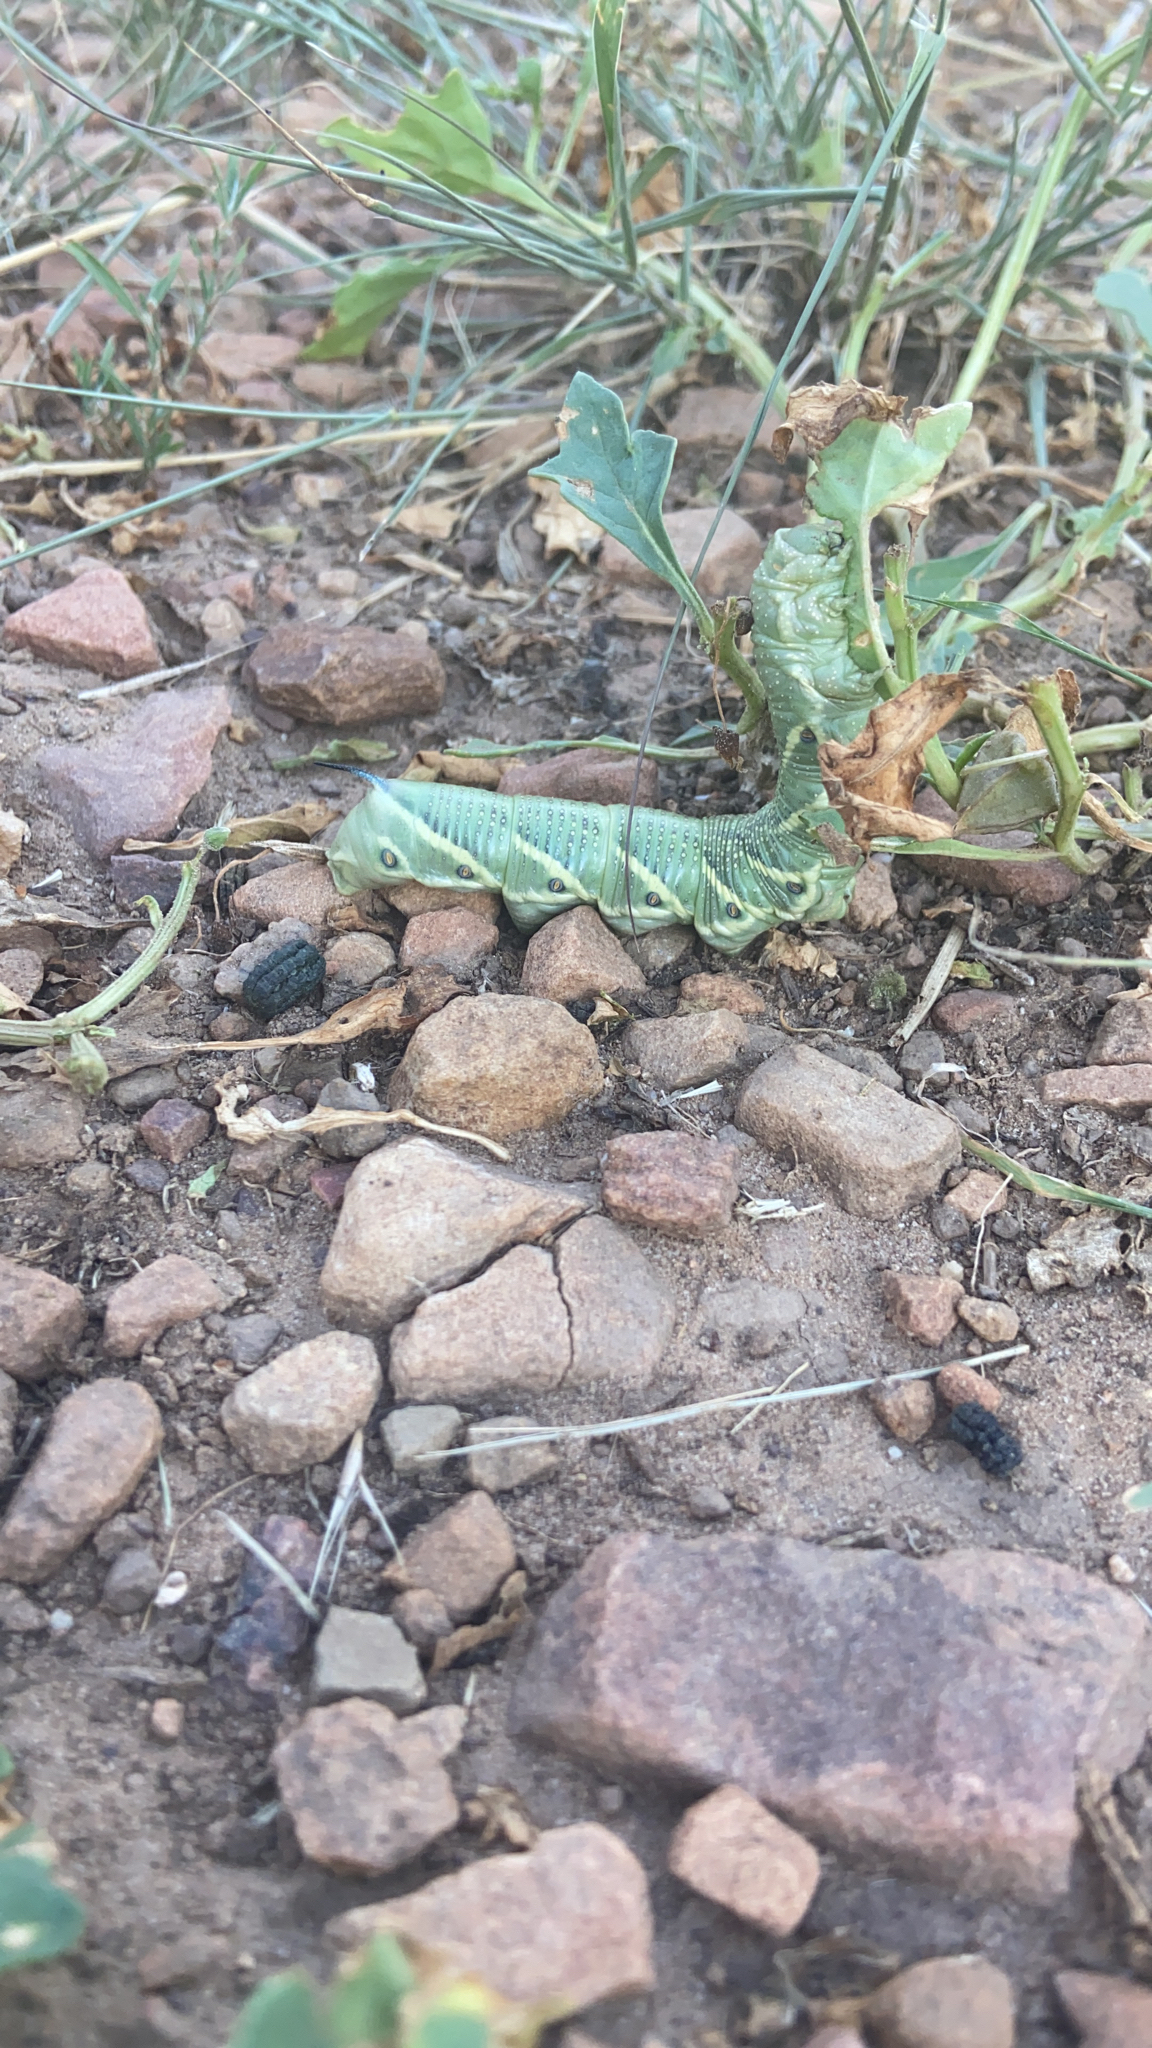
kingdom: Animalia
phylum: Arthropoda
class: Insecta
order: Lepidoptera
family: Sphingidae
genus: Manduca
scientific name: Manduca quinquemaculatus
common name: Five-spotted hawk-moth
